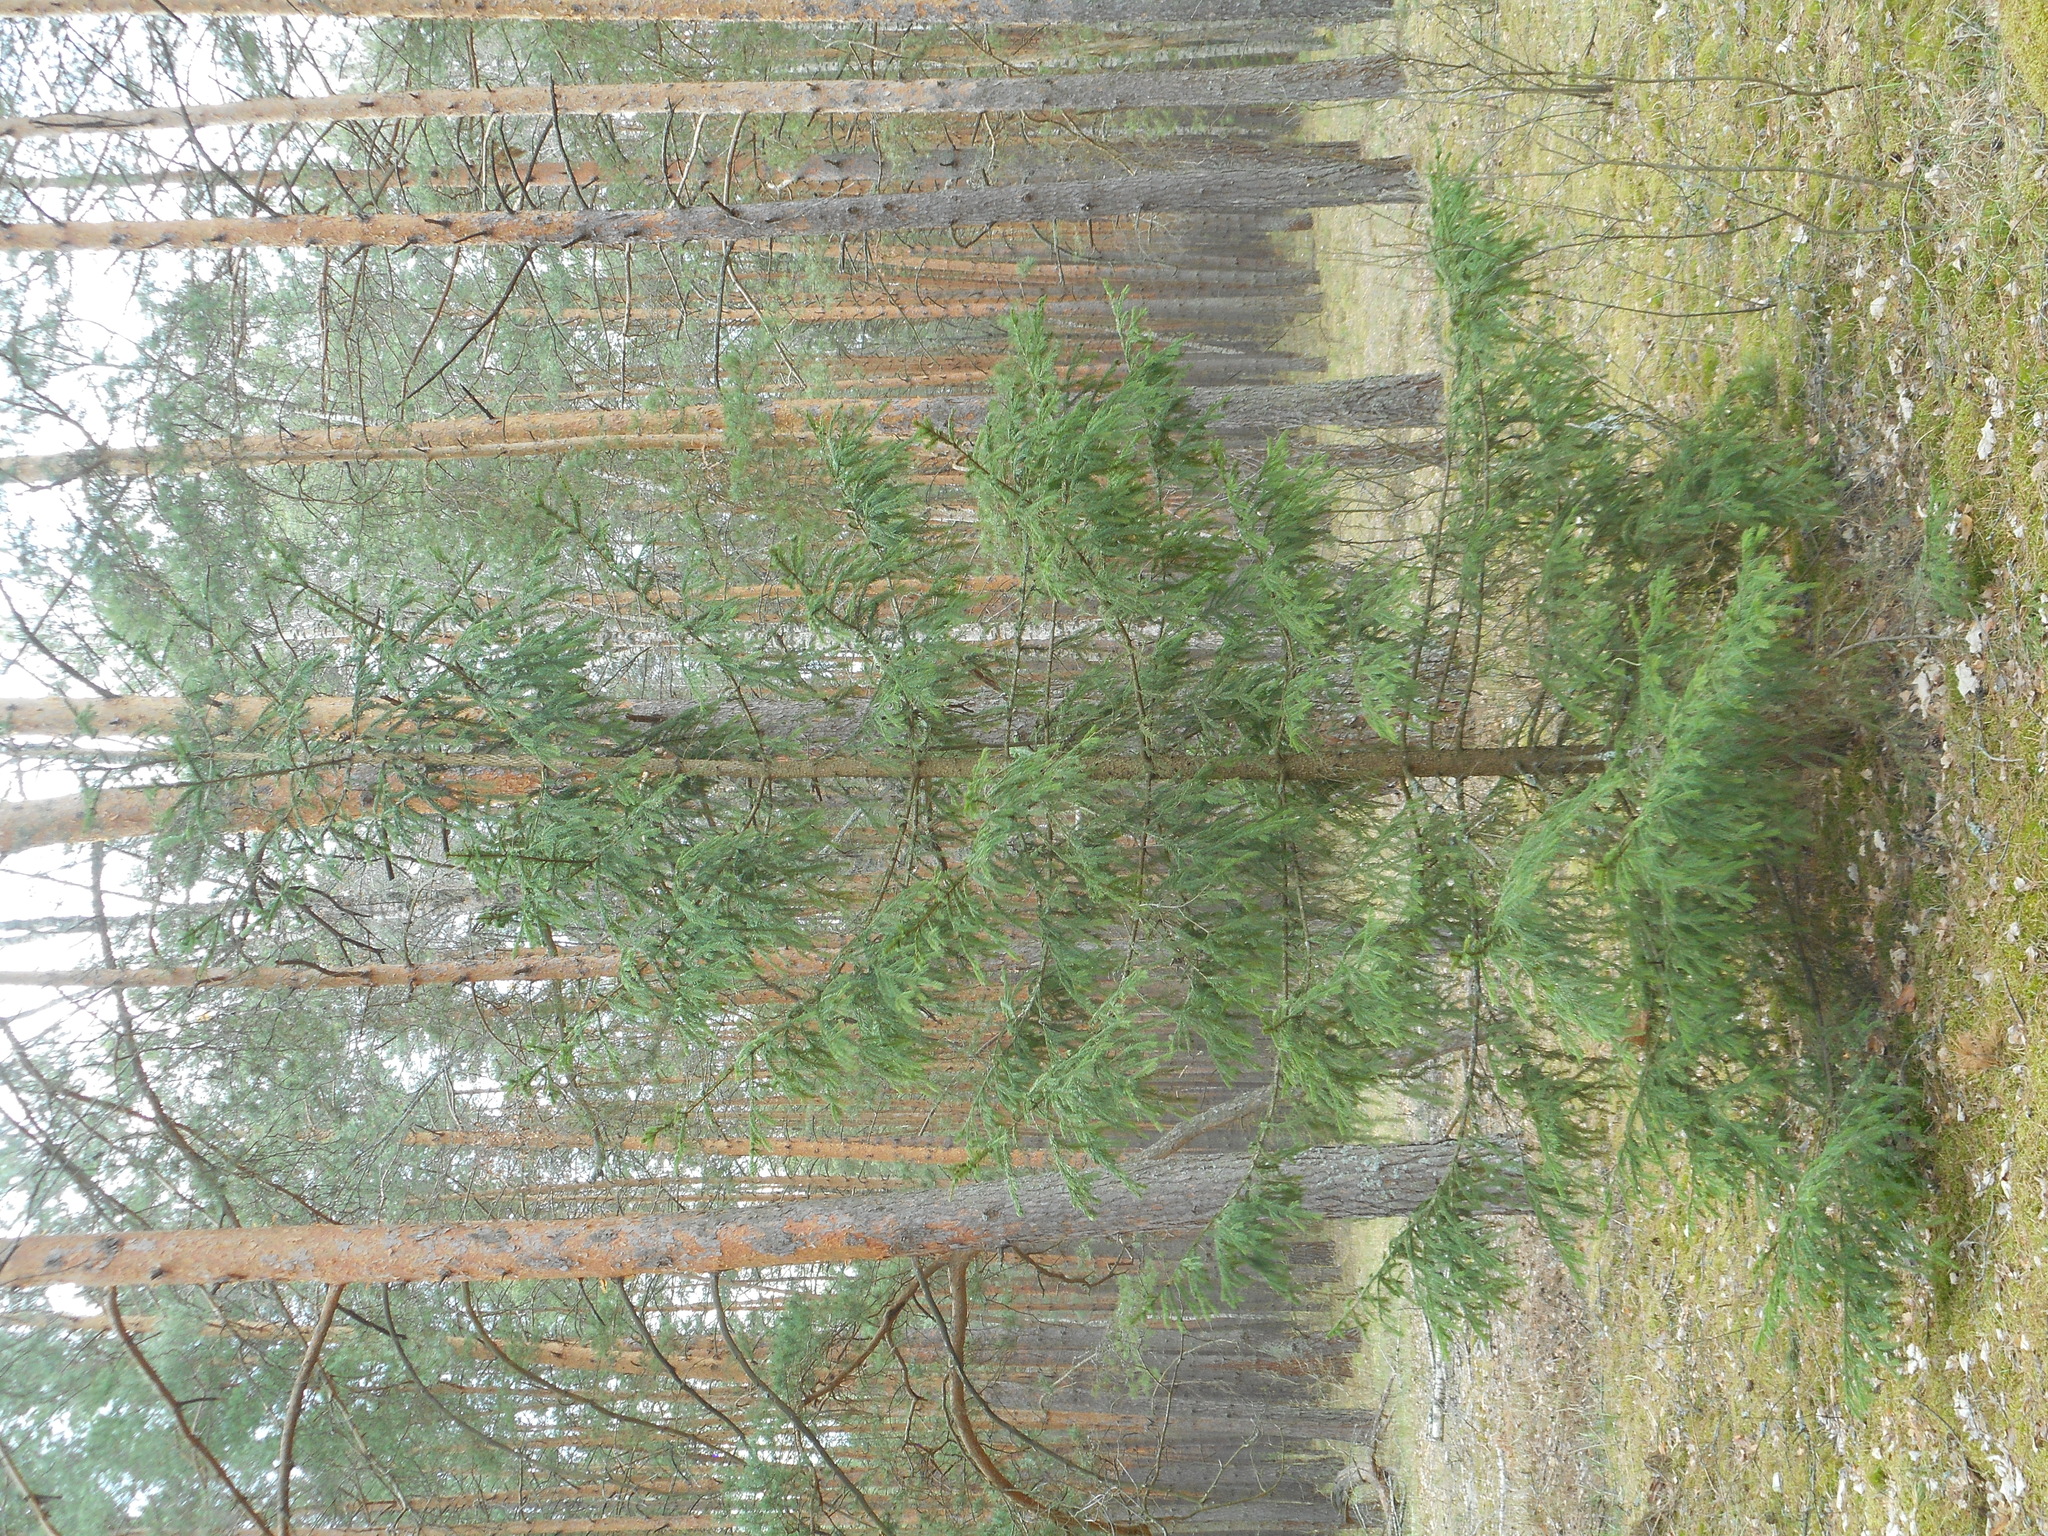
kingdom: Plantae
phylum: Tracheophyta
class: Pinopsida
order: Pinales
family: Pinaceae
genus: Picea
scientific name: Picea abies
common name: Norway spruce
